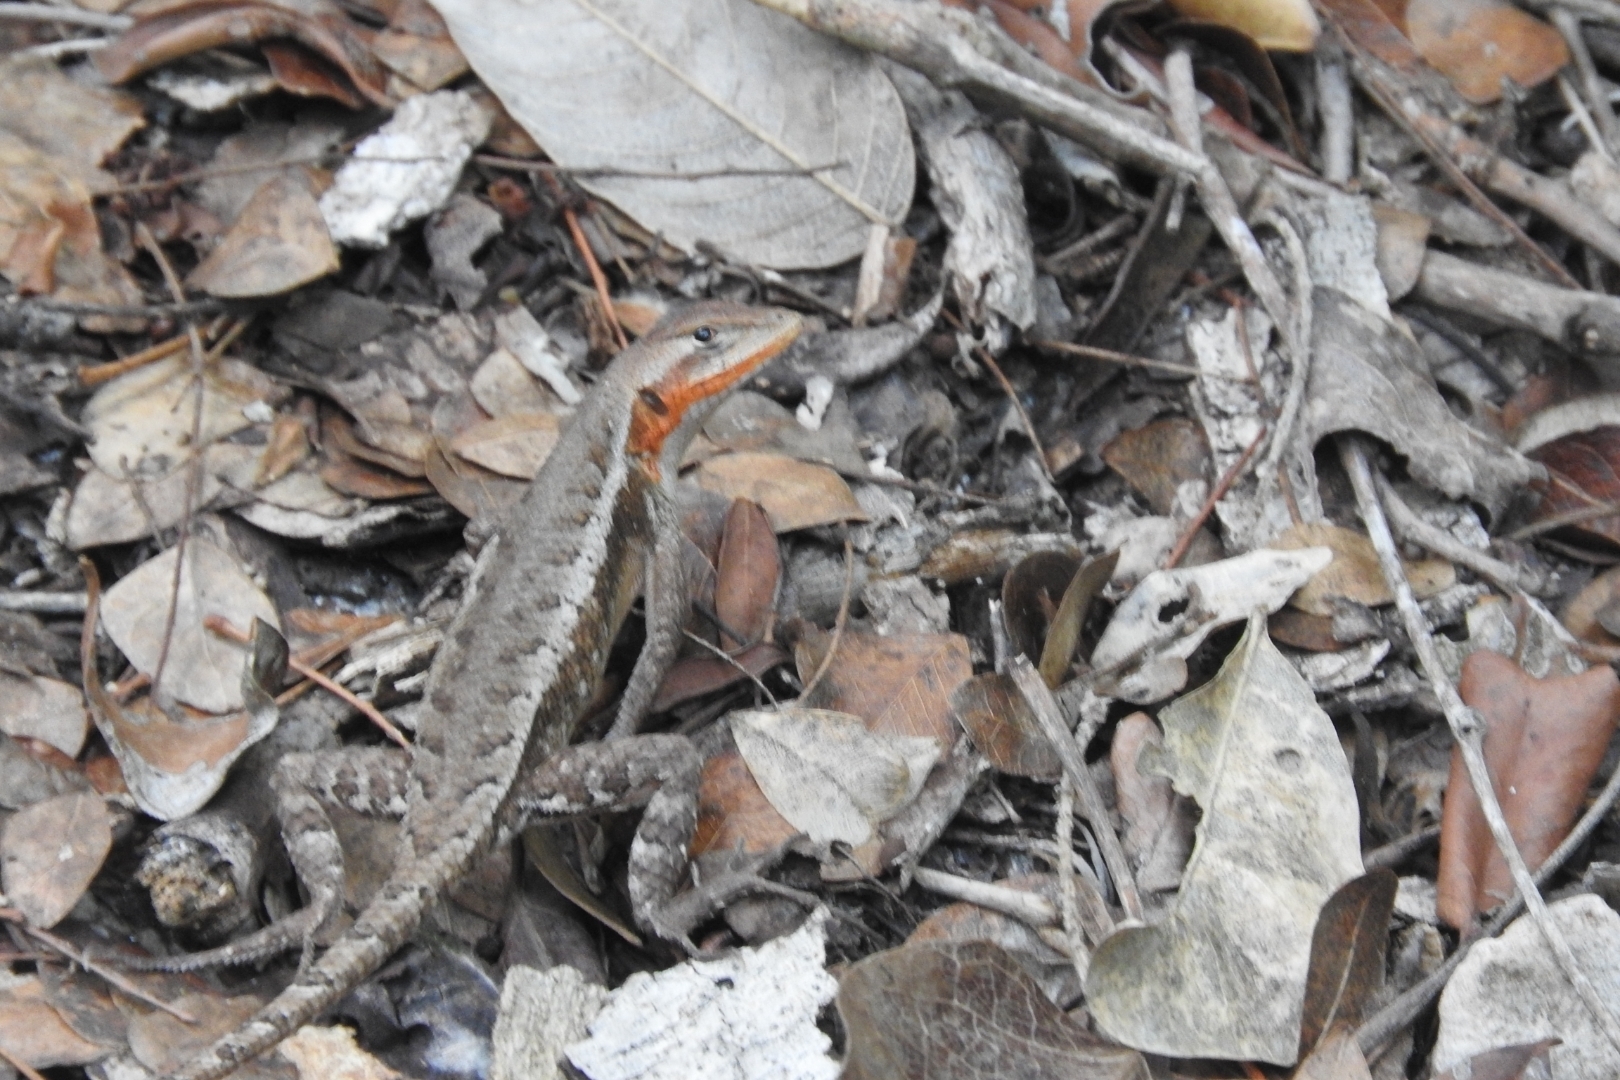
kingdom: Animalia
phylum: Chordata
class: Squamata
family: Phrynosomatidae
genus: Sceloporus
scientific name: Sceloporus chrysostictus
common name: Yellow-spotted spiny lizard
